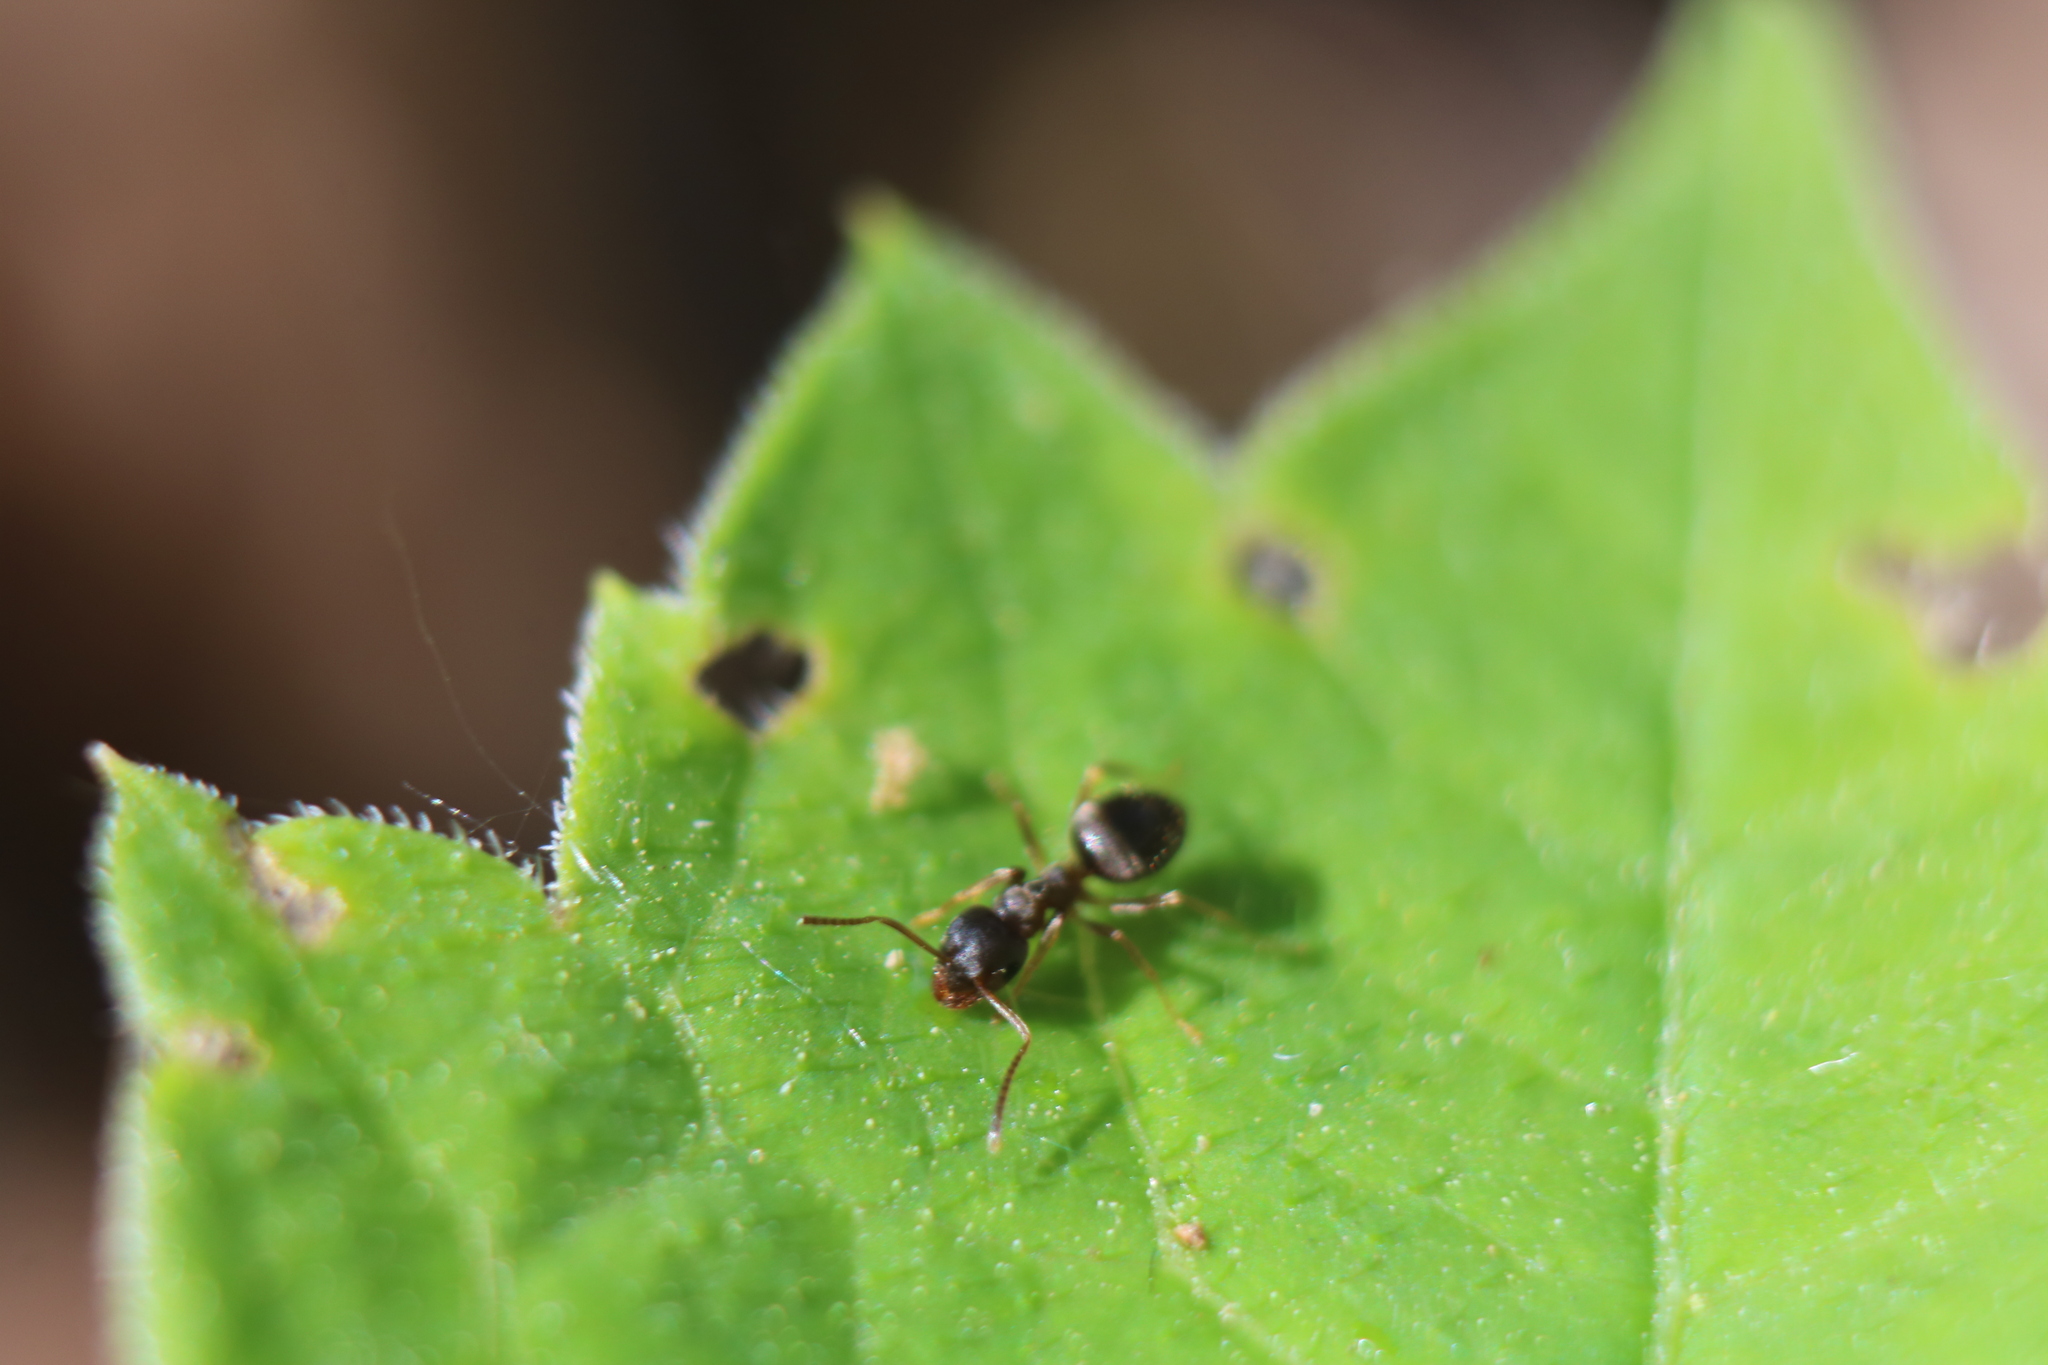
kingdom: Animalia
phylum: Arthropoda
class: Insecta
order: Hymenoptera
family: Formicidae
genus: Lasius
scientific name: Lasius americanus
